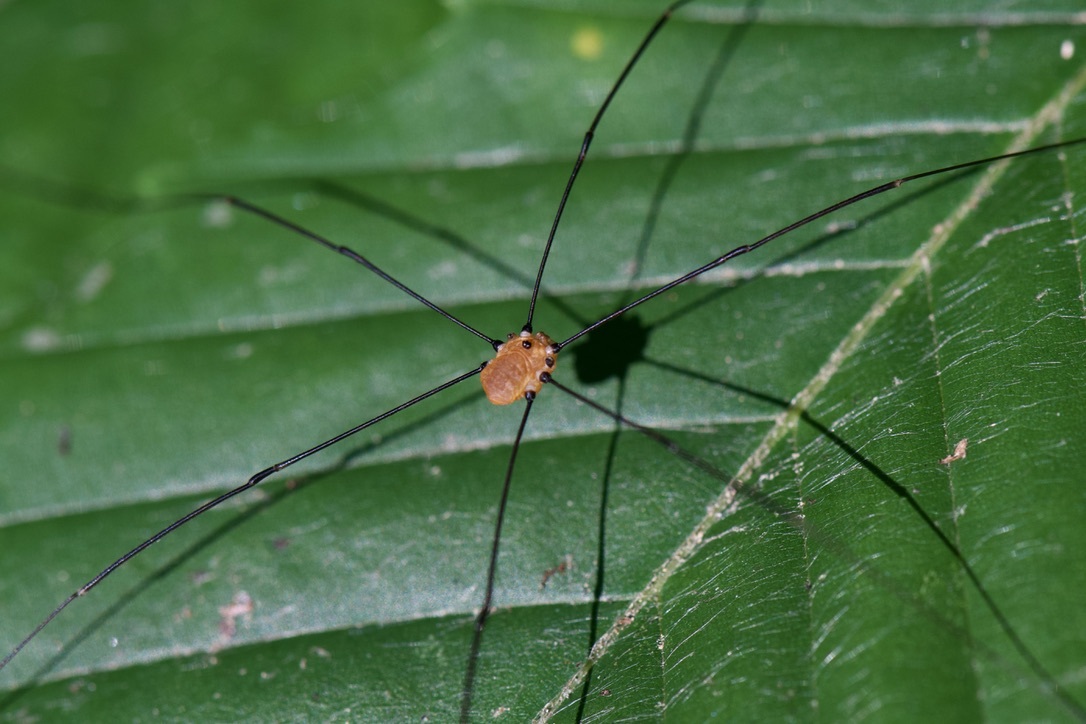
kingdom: Animalia
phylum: Arthropoda
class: Arachnida
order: Opiliones
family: Sclerosomatidae
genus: Leiobunum
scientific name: Leiobunum aldrichi
